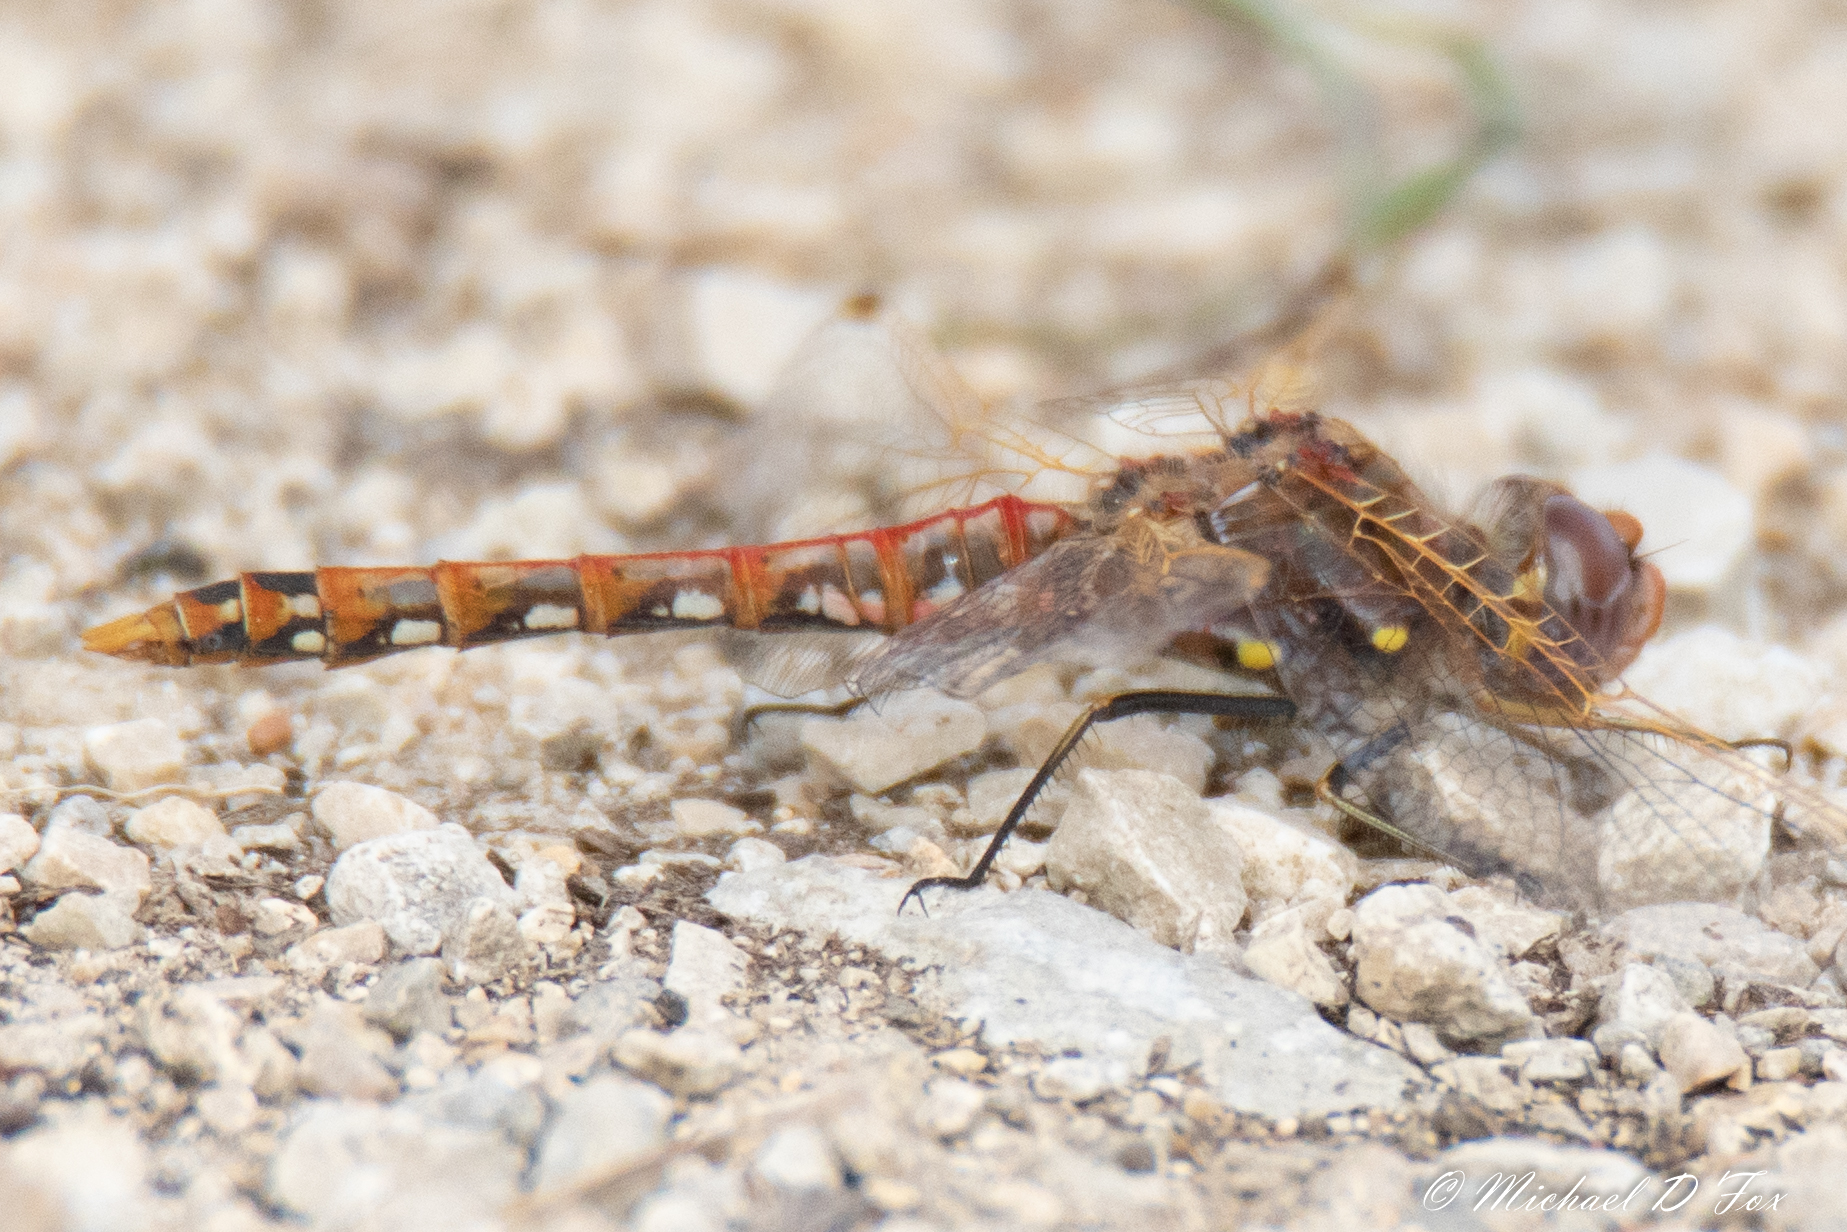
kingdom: Animalia
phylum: Arthropoda
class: Insecta
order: Odonata
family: Libellulidae
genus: Sympetrum
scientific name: Sympetrum corruptum
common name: Variegated meadowhawk
